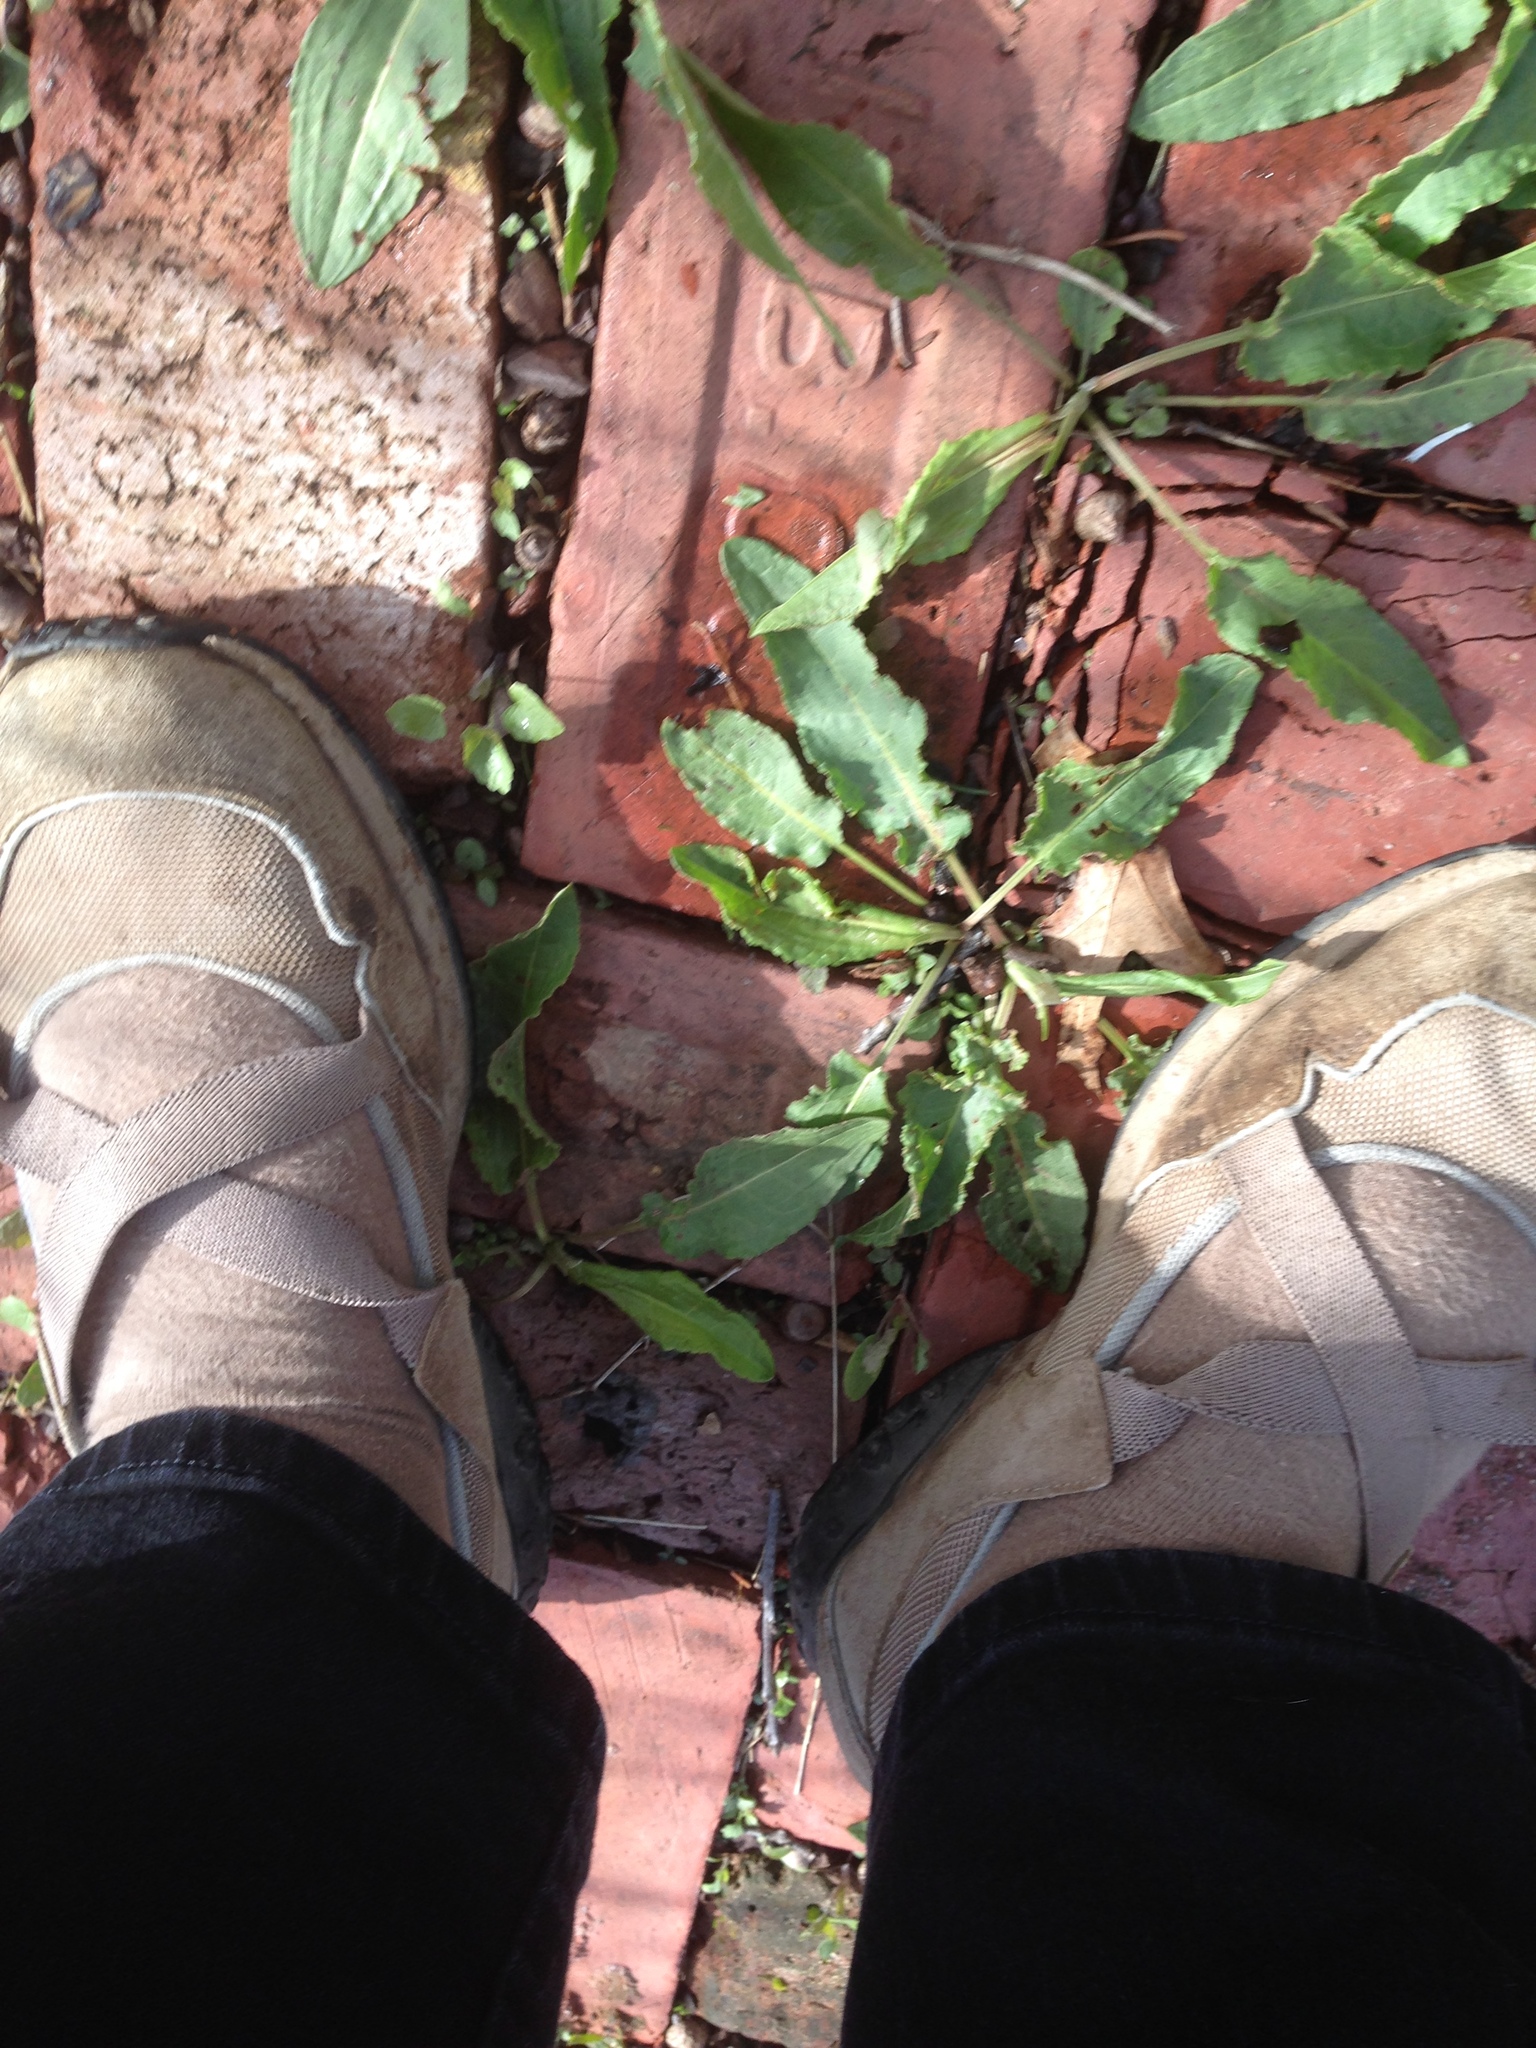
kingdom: Plantae
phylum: Tracheophyta
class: Magnoliopsida
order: Caryophyllales
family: Polygonaceae
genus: Rumex
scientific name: Rumex crispus
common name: Curled dock
